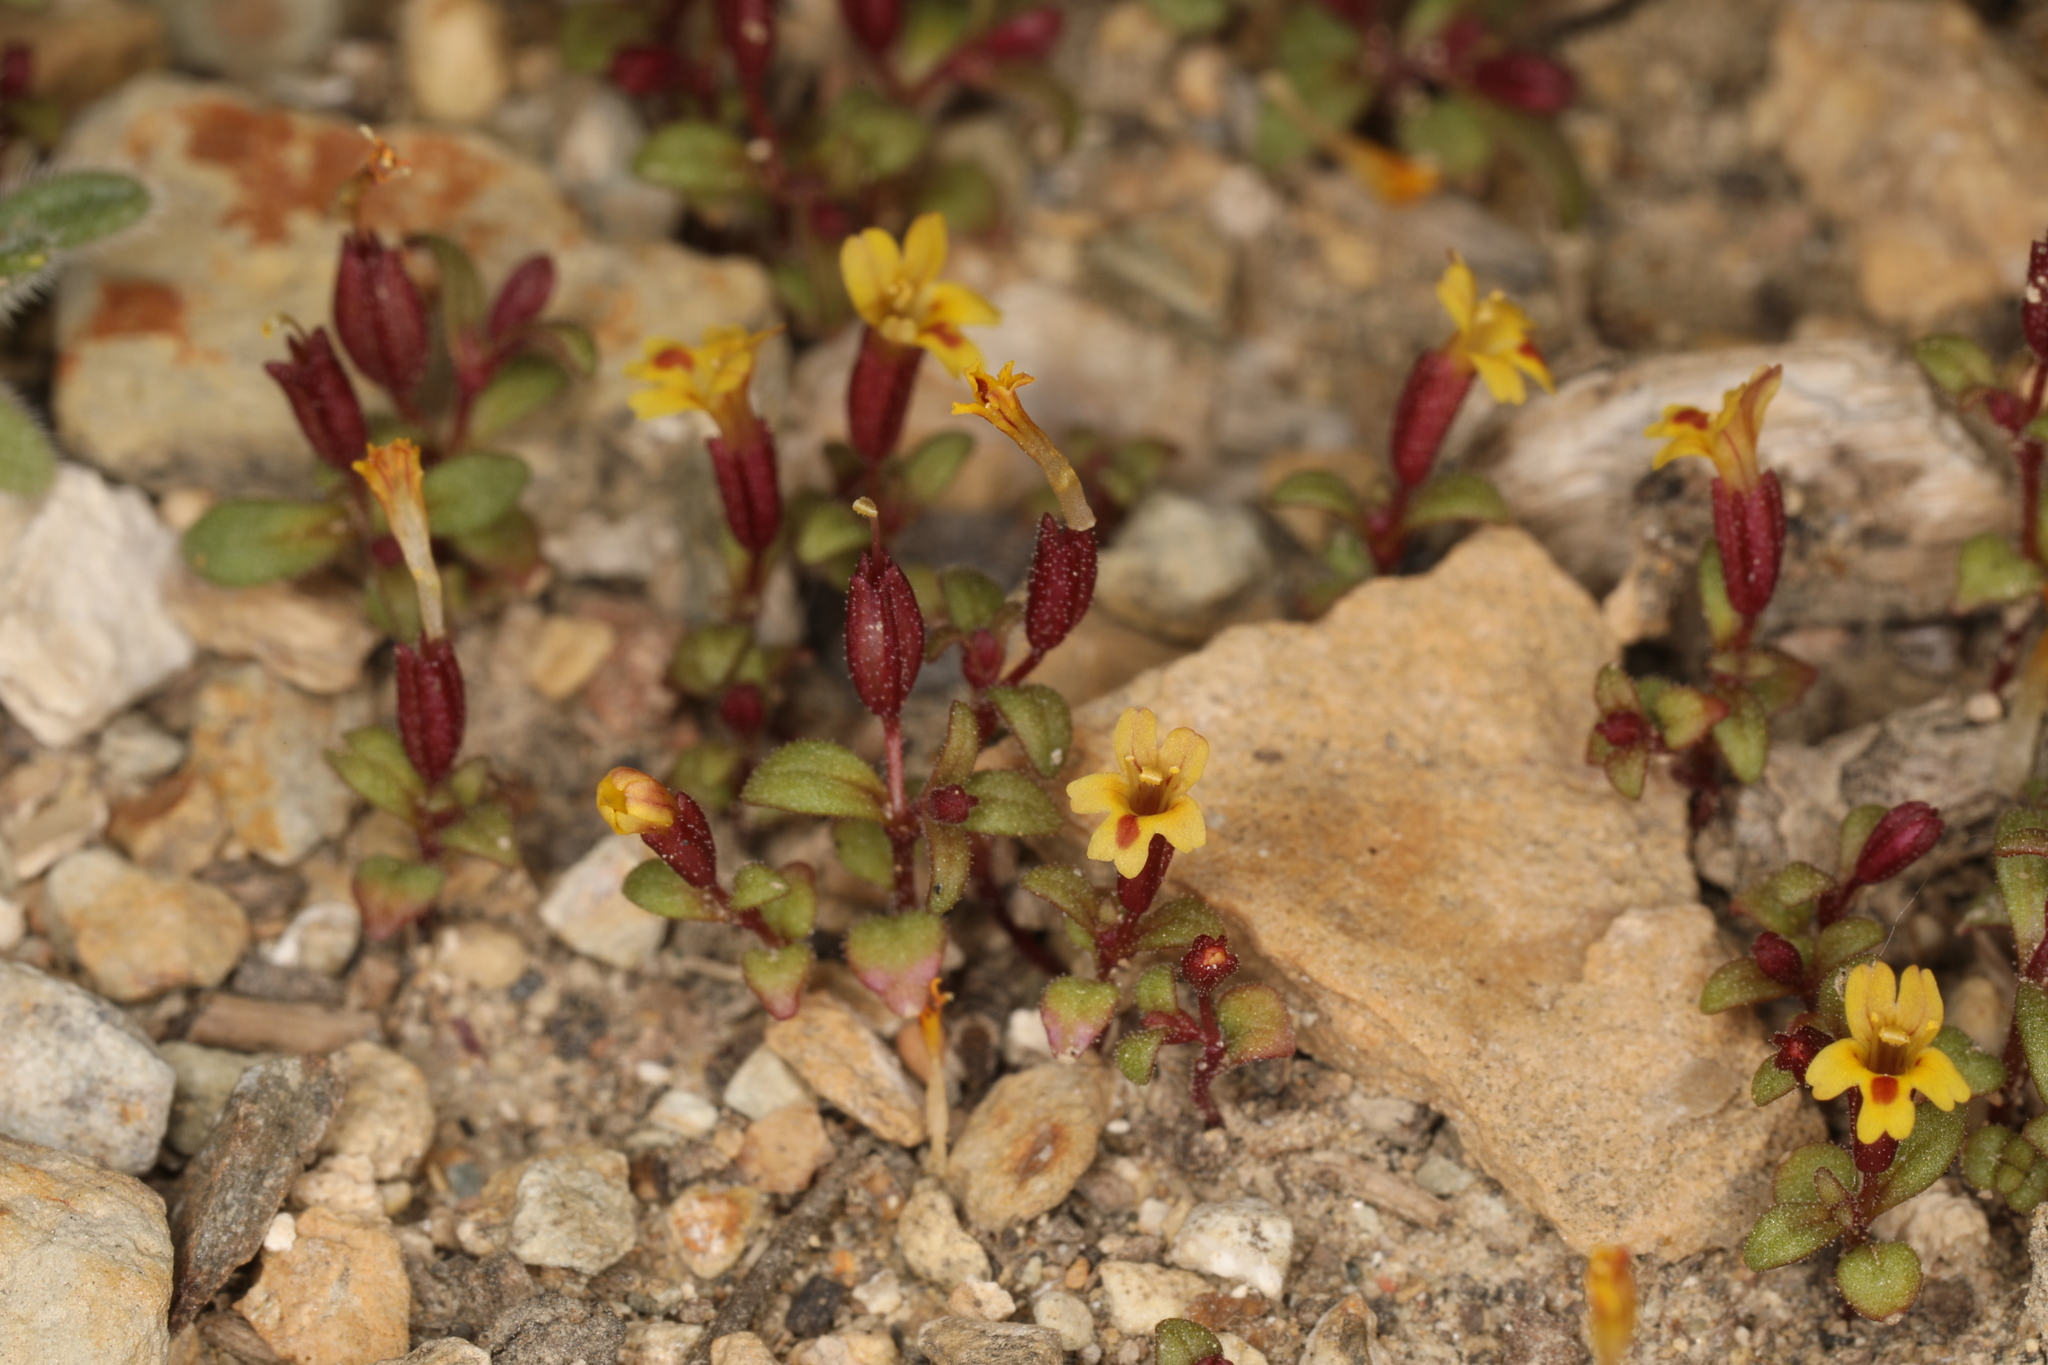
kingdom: Plantae
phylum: Tracheophyta
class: Magnoliopsida
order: Lamiales
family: Phrymaceae
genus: Erythranthe
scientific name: Erythranthe suksdorfii
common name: Suksdorf's monkeyflower
